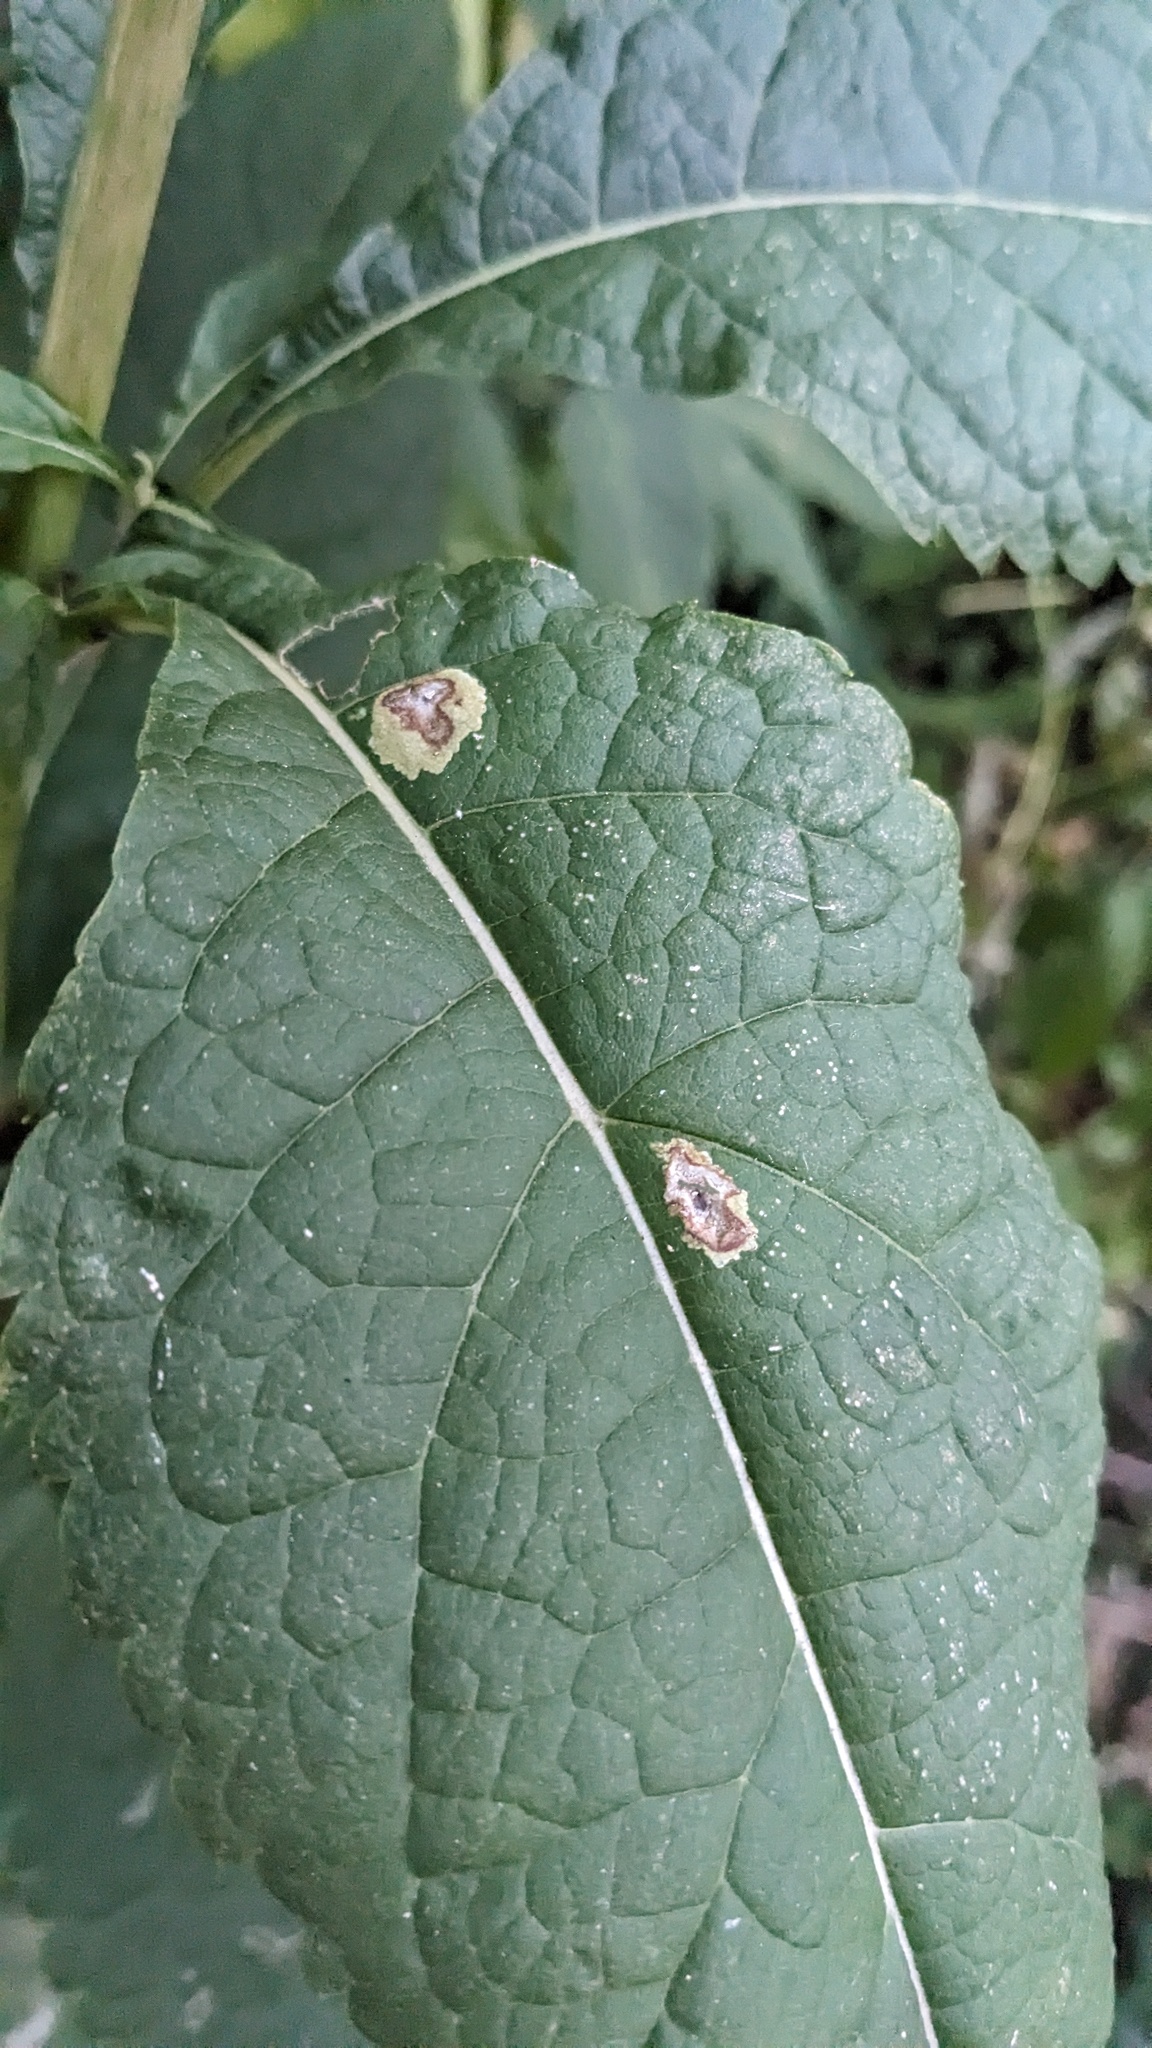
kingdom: Animalia
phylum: Arthropoda
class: Insecta
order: Diptera
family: Agromyzidae
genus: Calycomyza
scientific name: Calycomyza flavinotum
